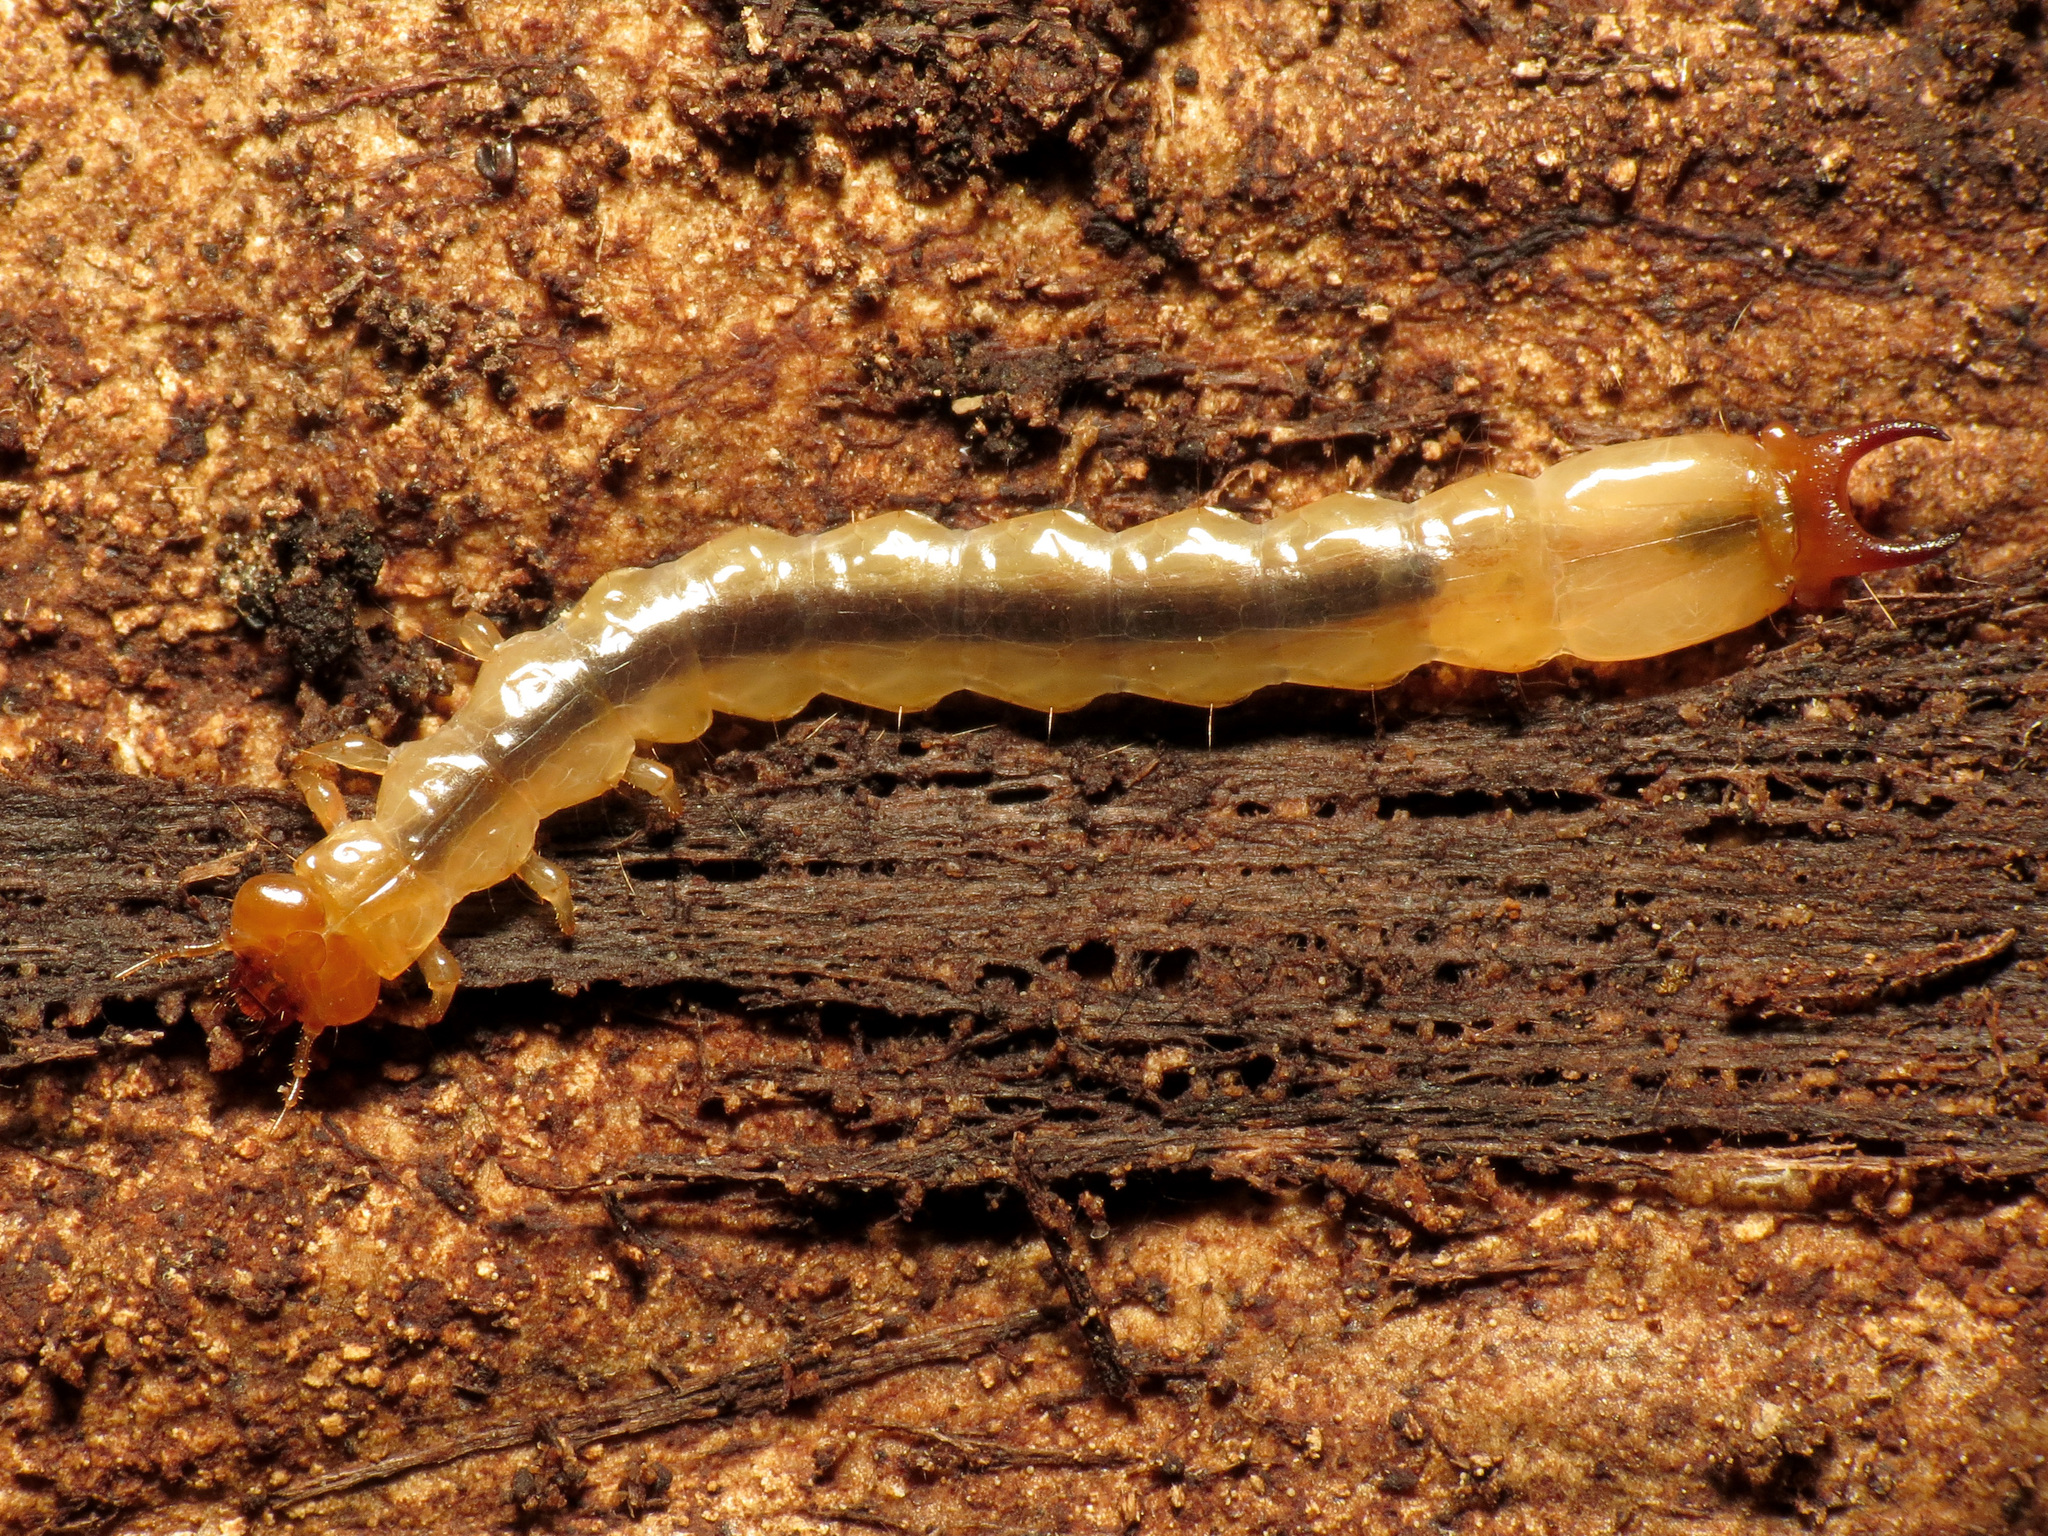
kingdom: Animalia
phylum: Arthropoda
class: Insecta
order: Coleoptera
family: Pyrochroidae
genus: Dendroides
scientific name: Dendroides canadensis
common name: Canada fire-colored beetle
